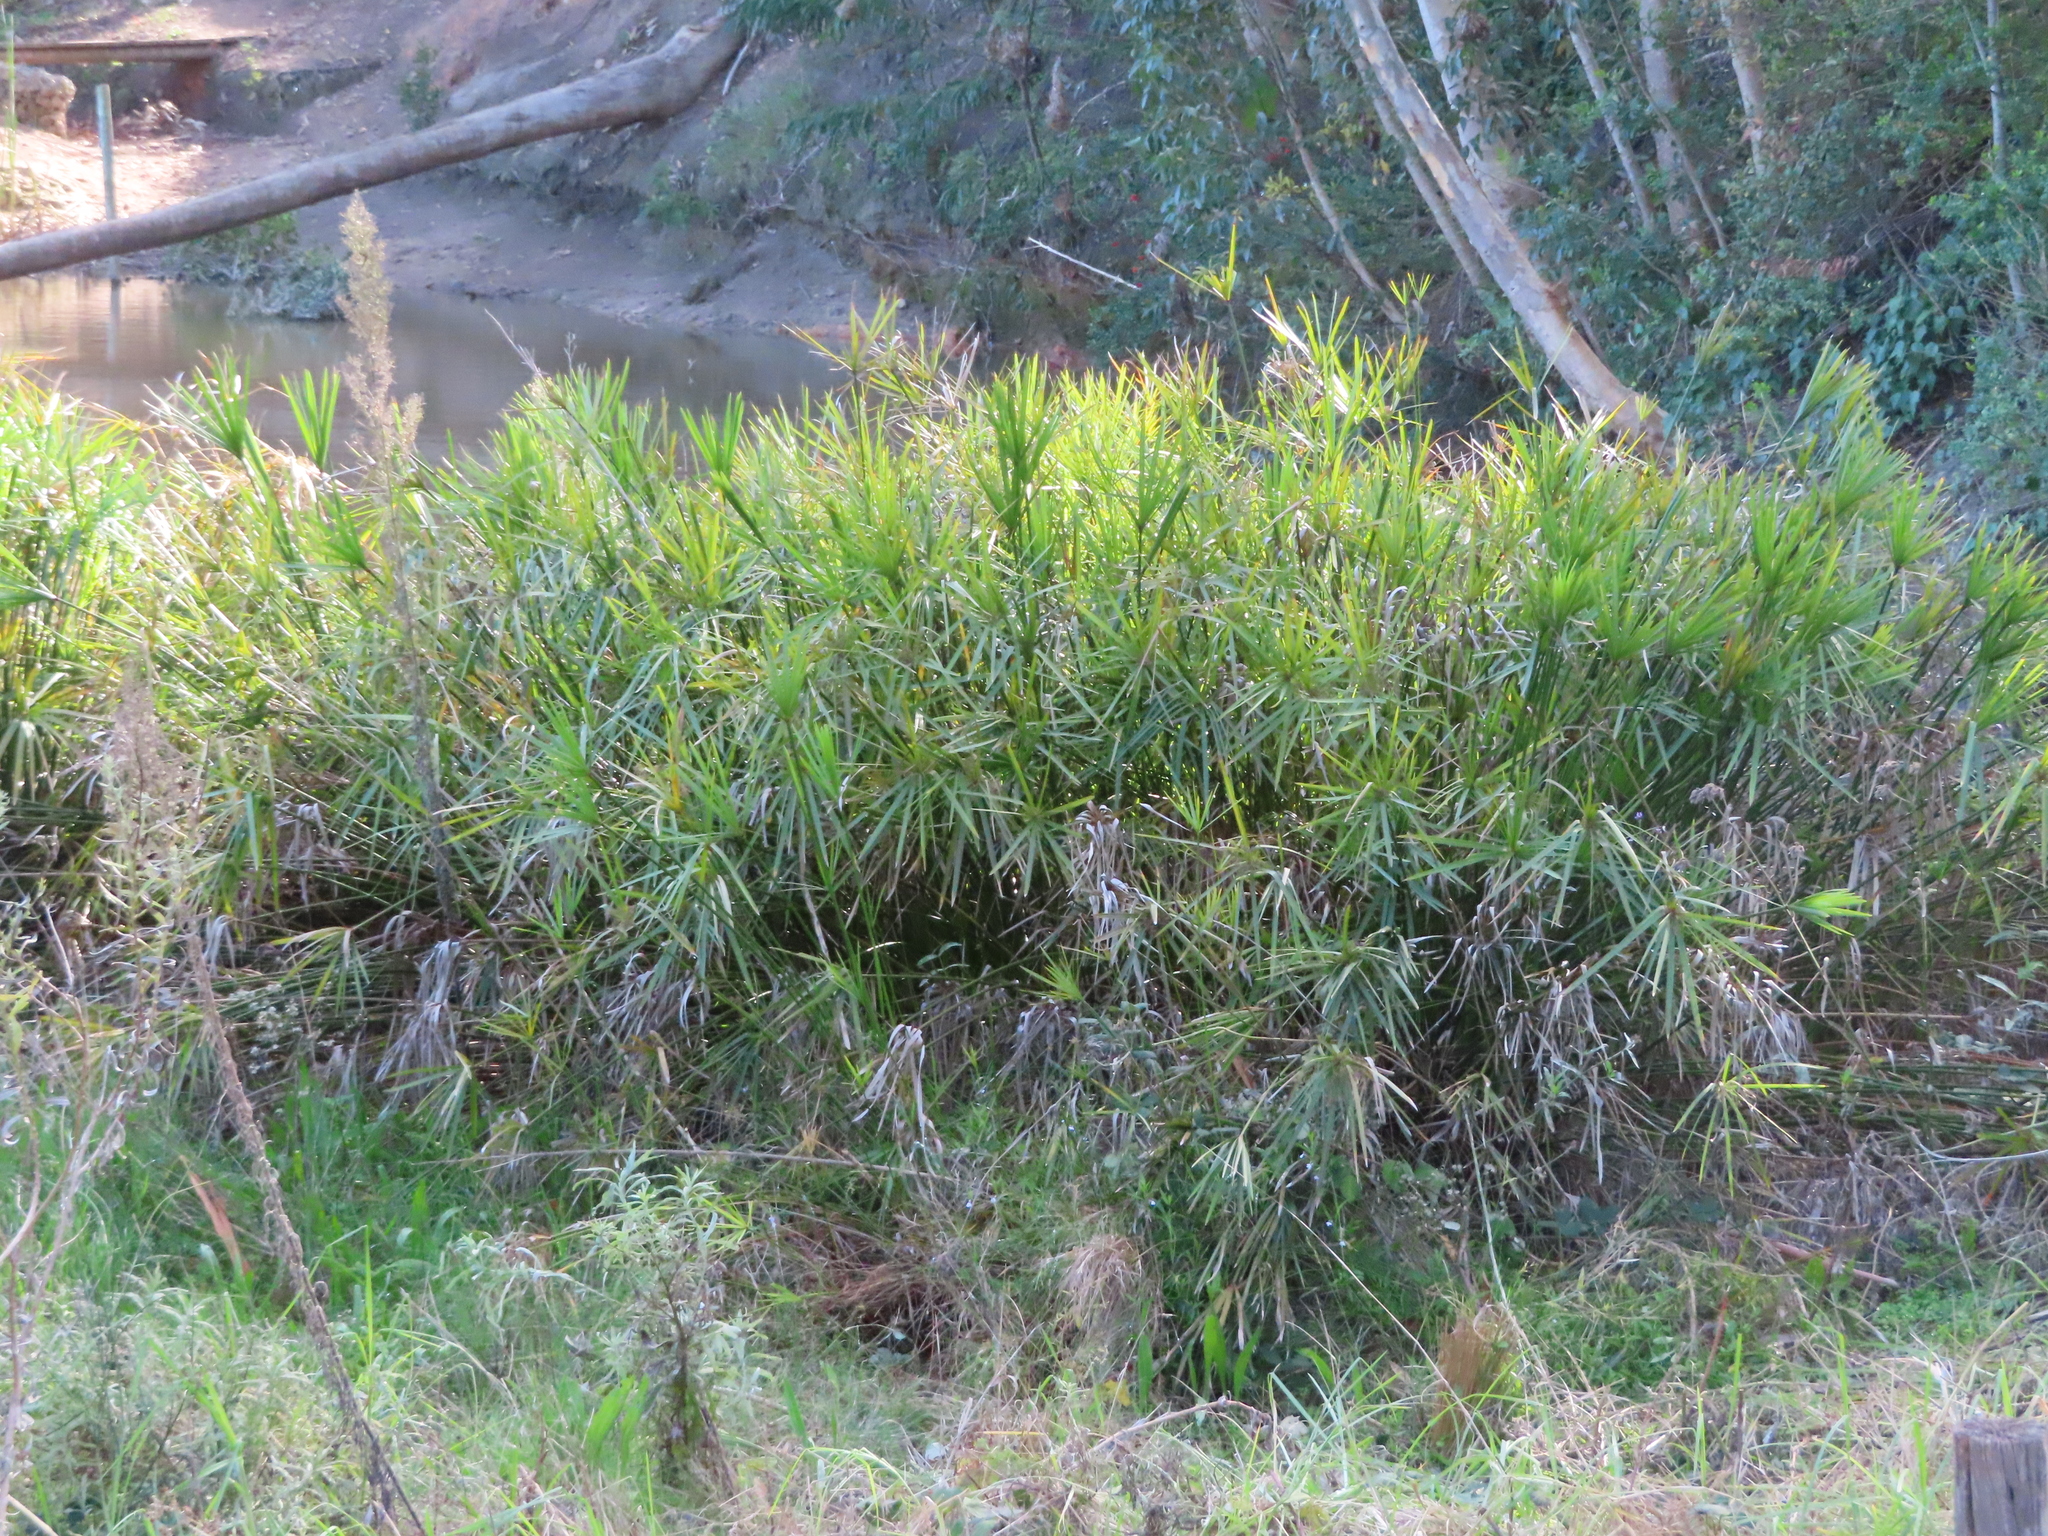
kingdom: Plantae
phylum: Tracheophyta
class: Liliopsida
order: Poales
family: Cyperaceae
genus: Cyperus
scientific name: Cyperus textilis
